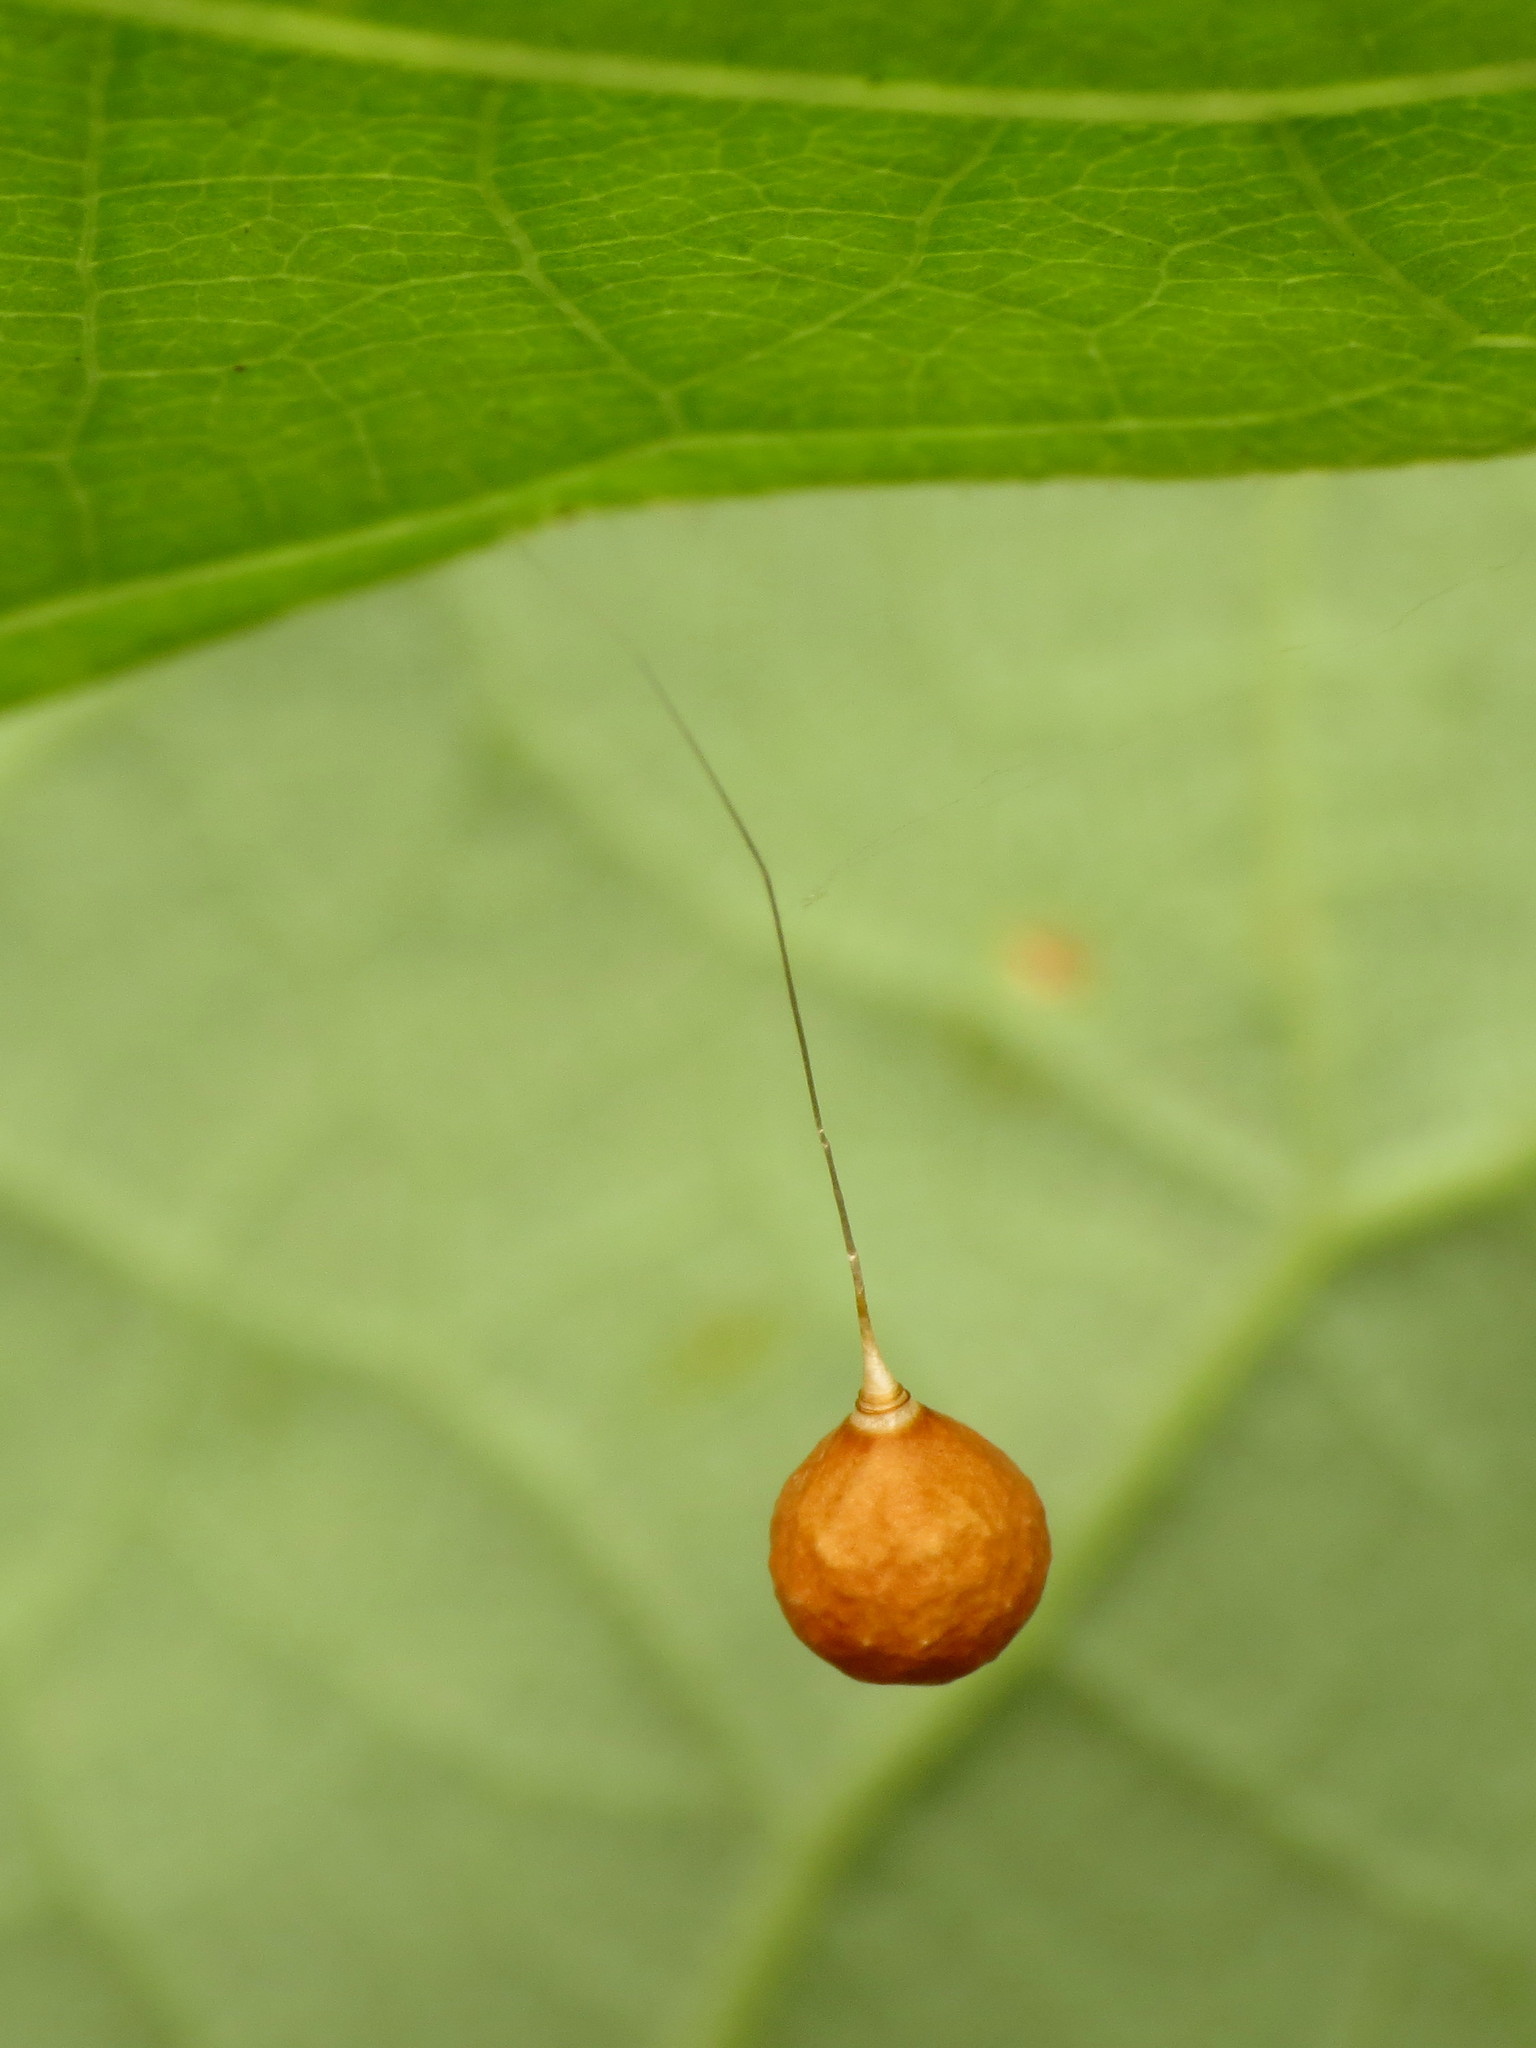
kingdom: Animalia
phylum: Arthropoda
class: Arachnida
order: Araneae
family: Theridiosomatidae
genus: Theridiosoma
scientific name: Theridiosoma gemmosum
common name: Ray spider
